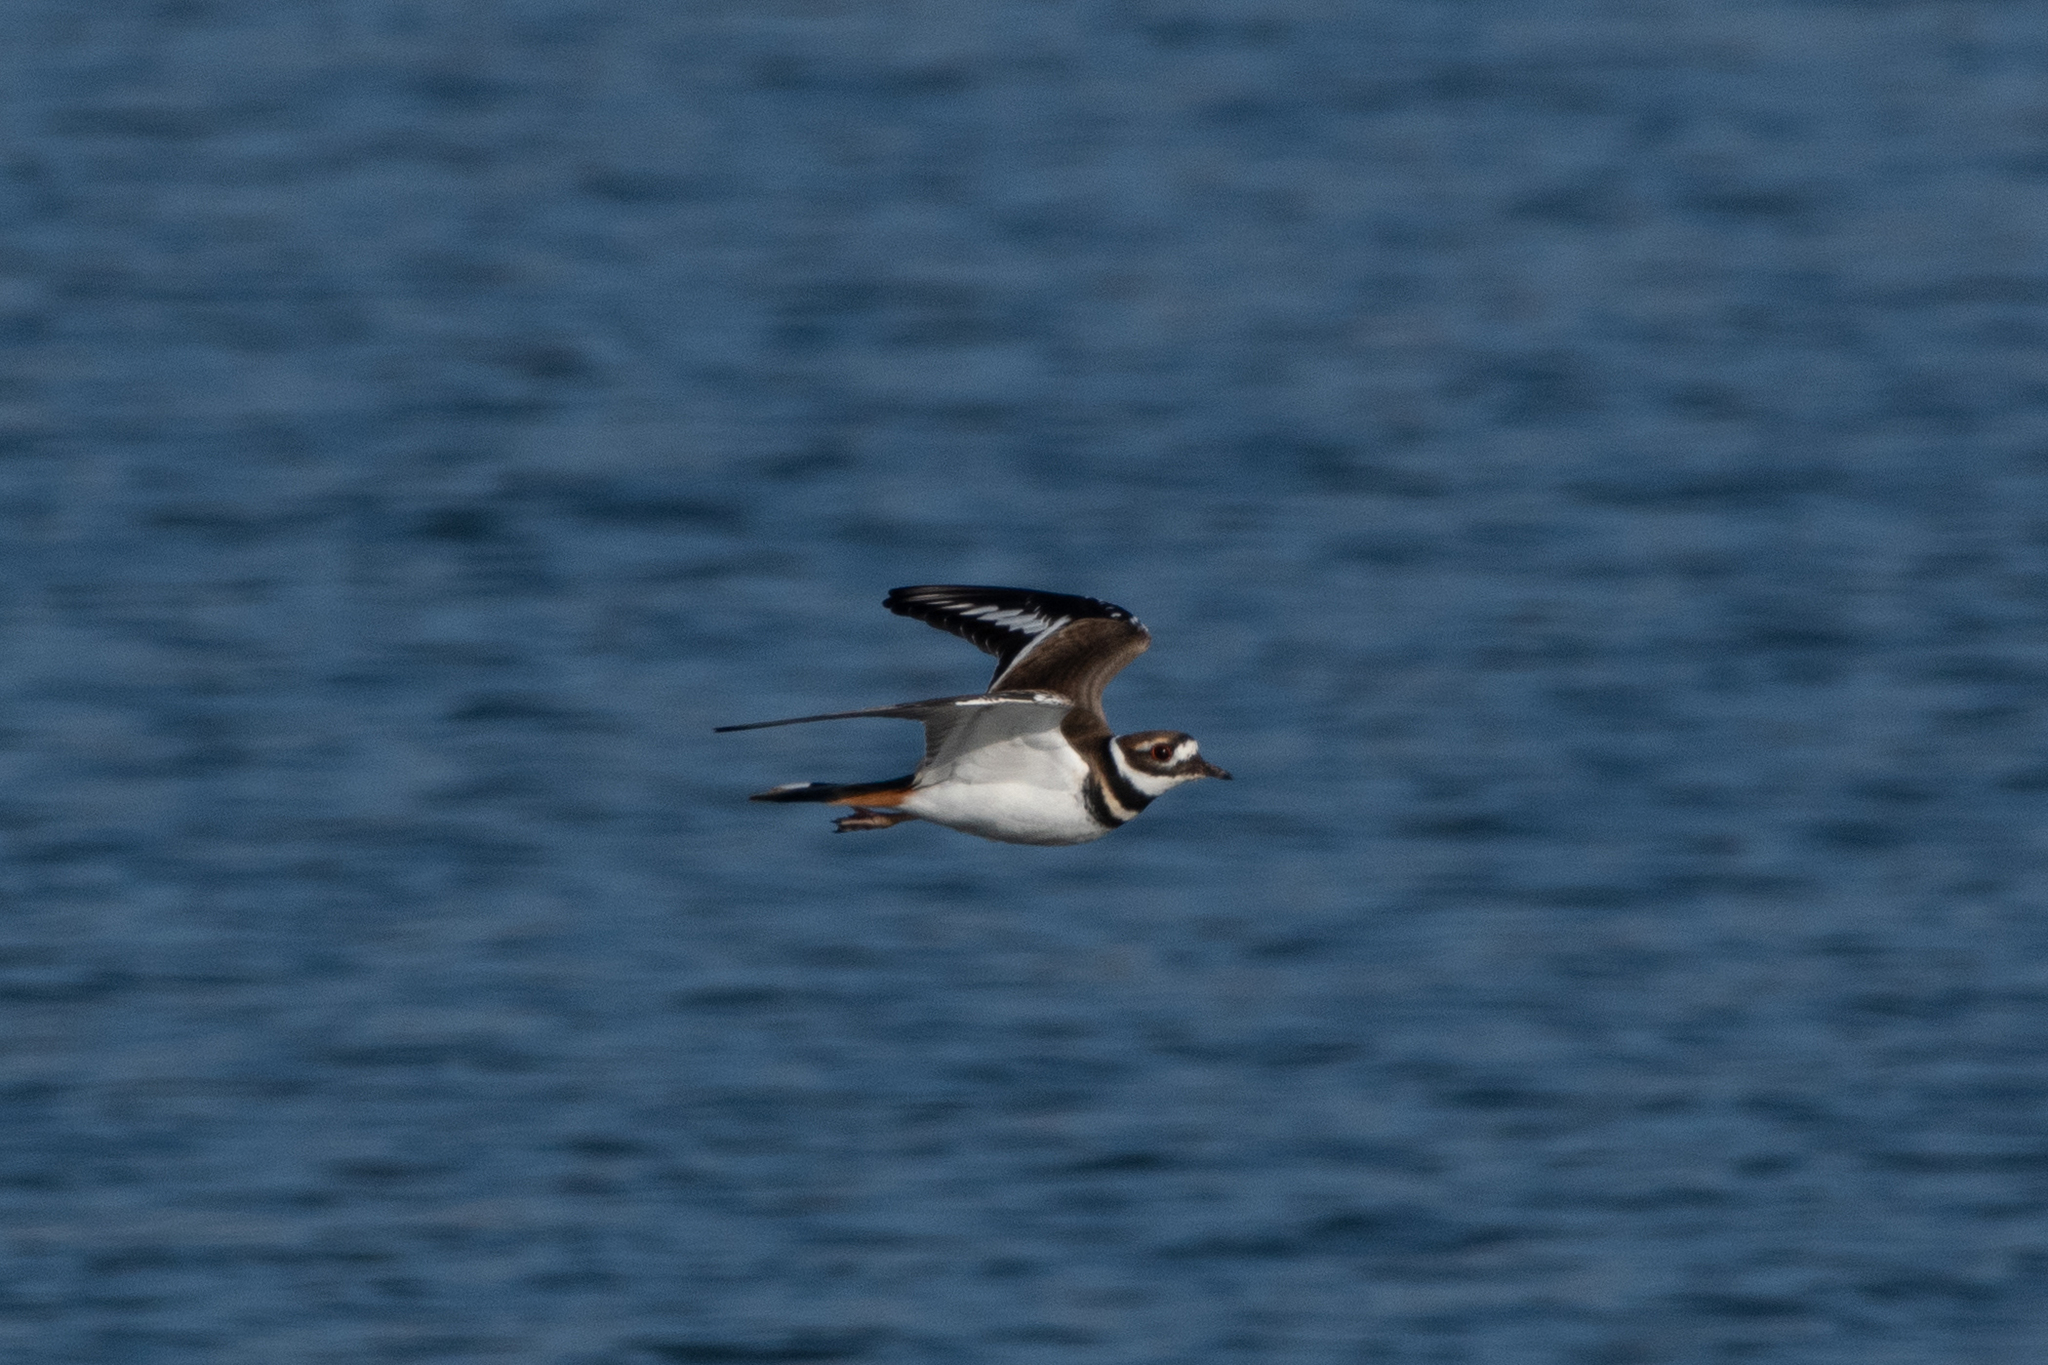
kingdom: Animalia
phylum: Chordata
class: Aves
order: Charadriiformes
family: Charadriidae
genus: Charadrius
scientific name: Charadrius vociferus
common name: Killdeer
